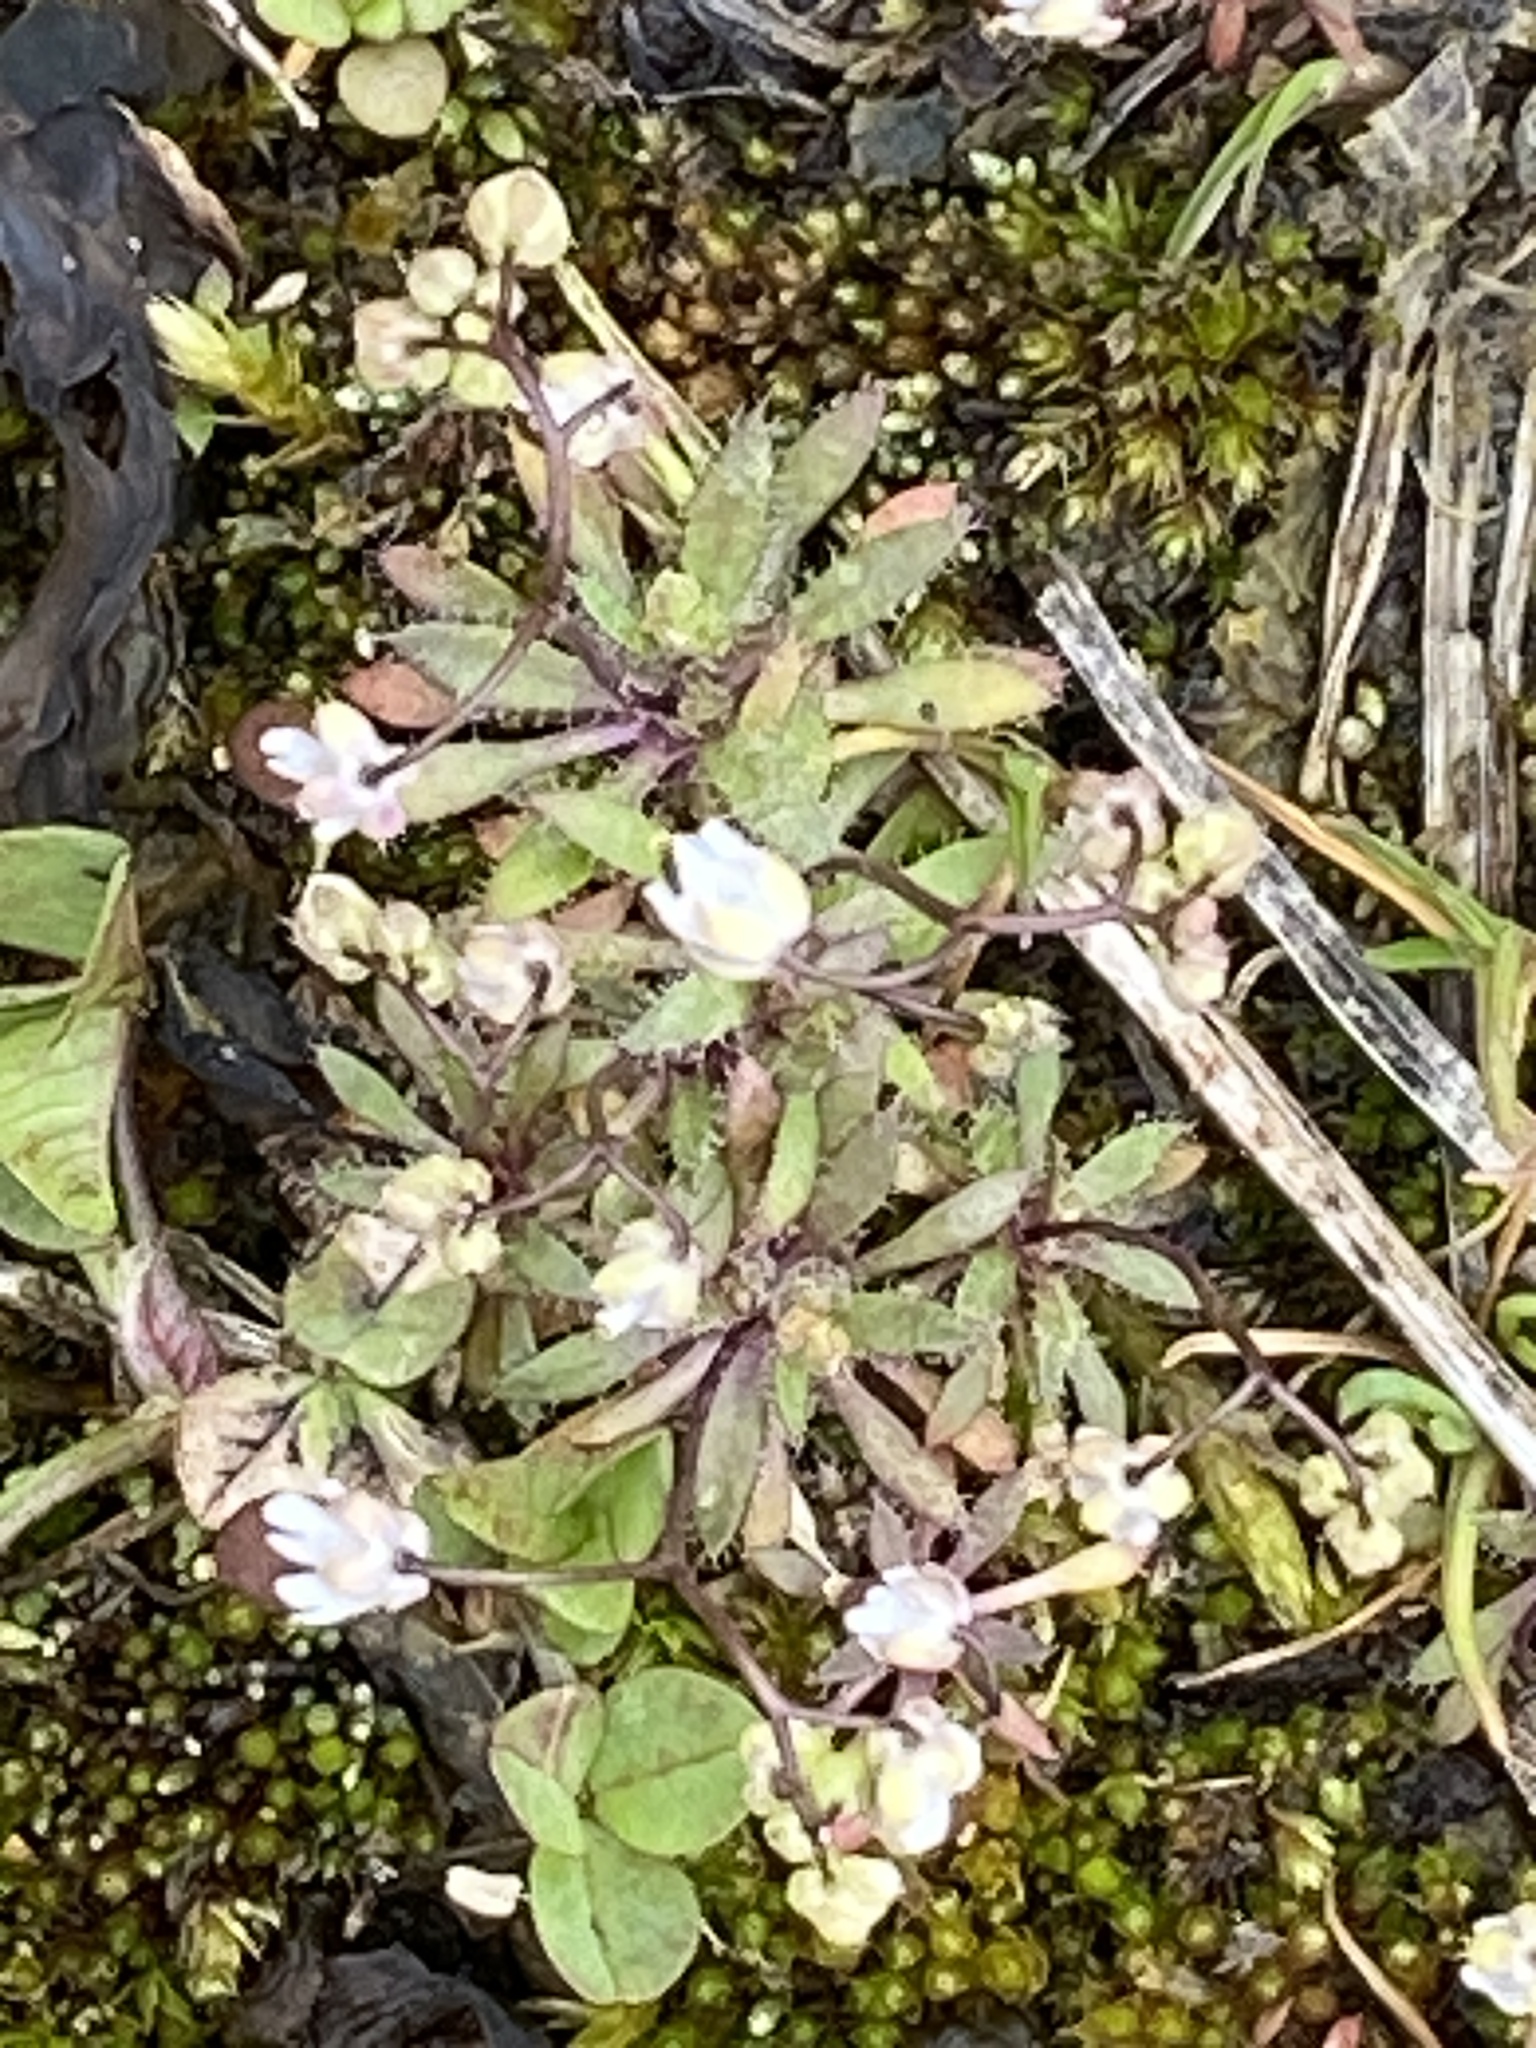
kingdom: Plantae
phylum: Tracheophyta
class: Magnoliopsida
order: Brassicales
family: Brassicaceae
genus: Draba
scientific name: Draba verna
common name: Spring draba
